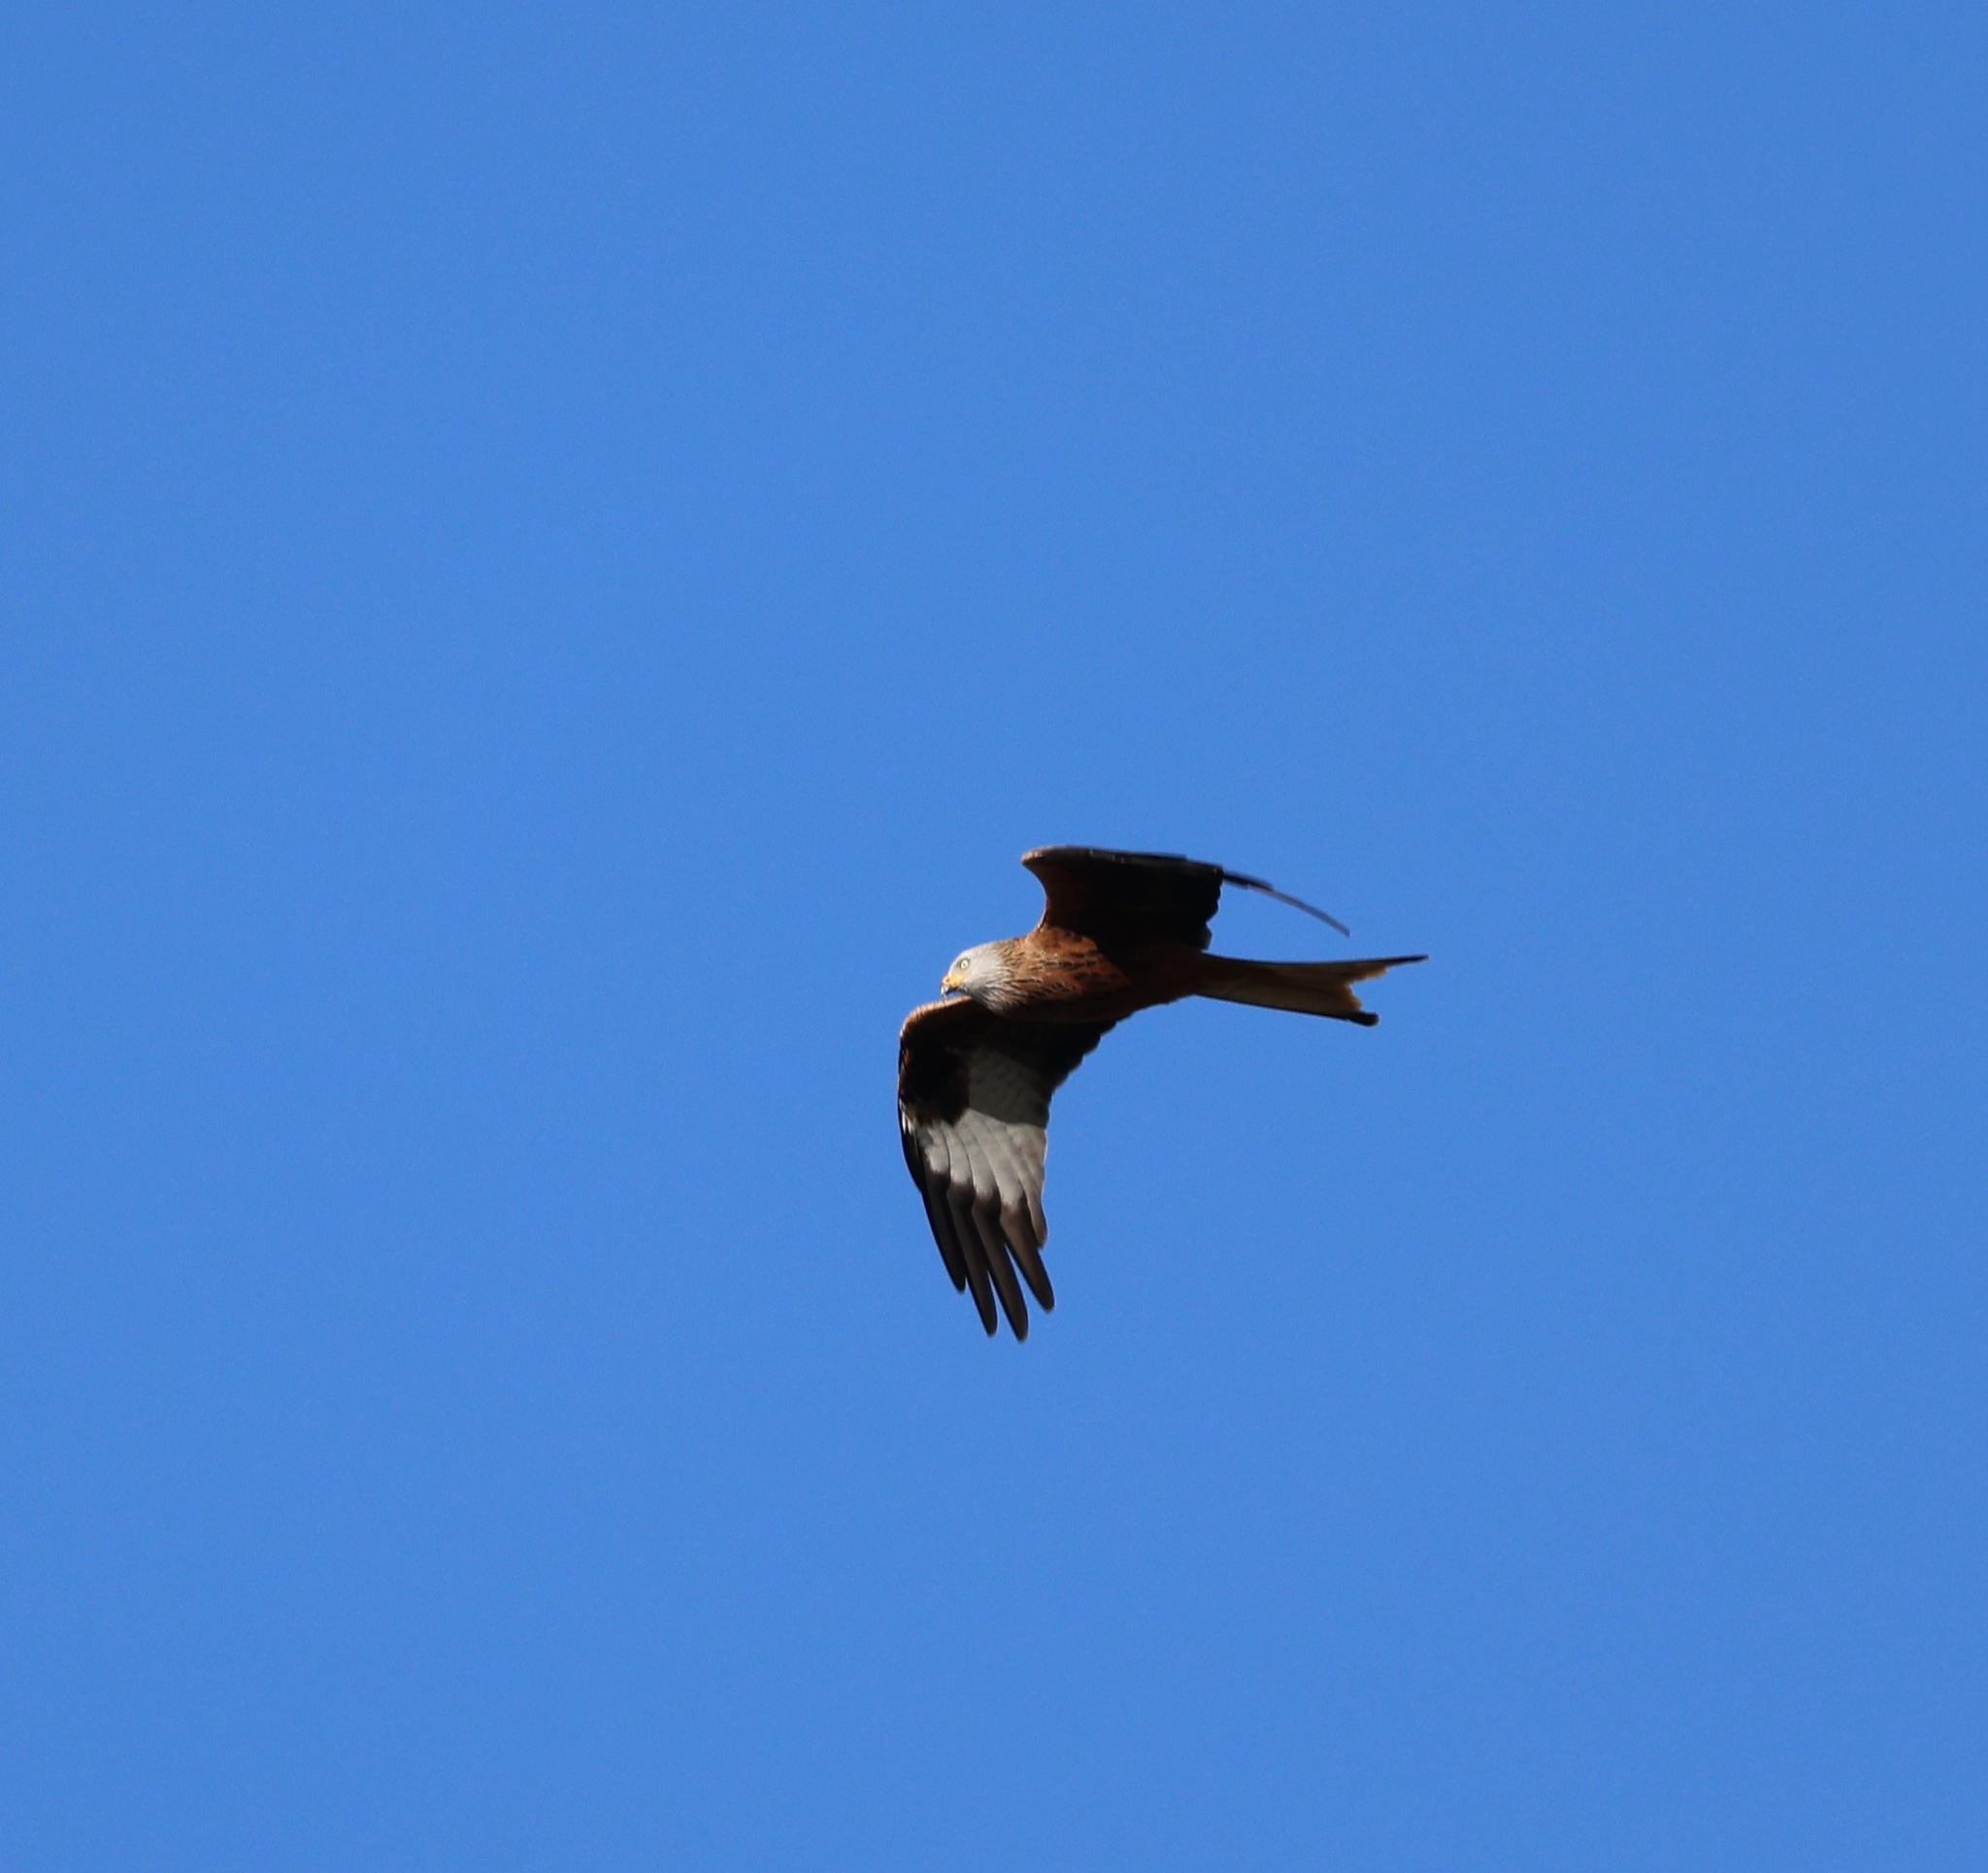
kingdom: Animalia
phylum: Chordata
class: Aves
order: Accipitriformes
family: Accipitridae
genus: Milvus
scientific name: Milvus milvus
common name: Red kite
